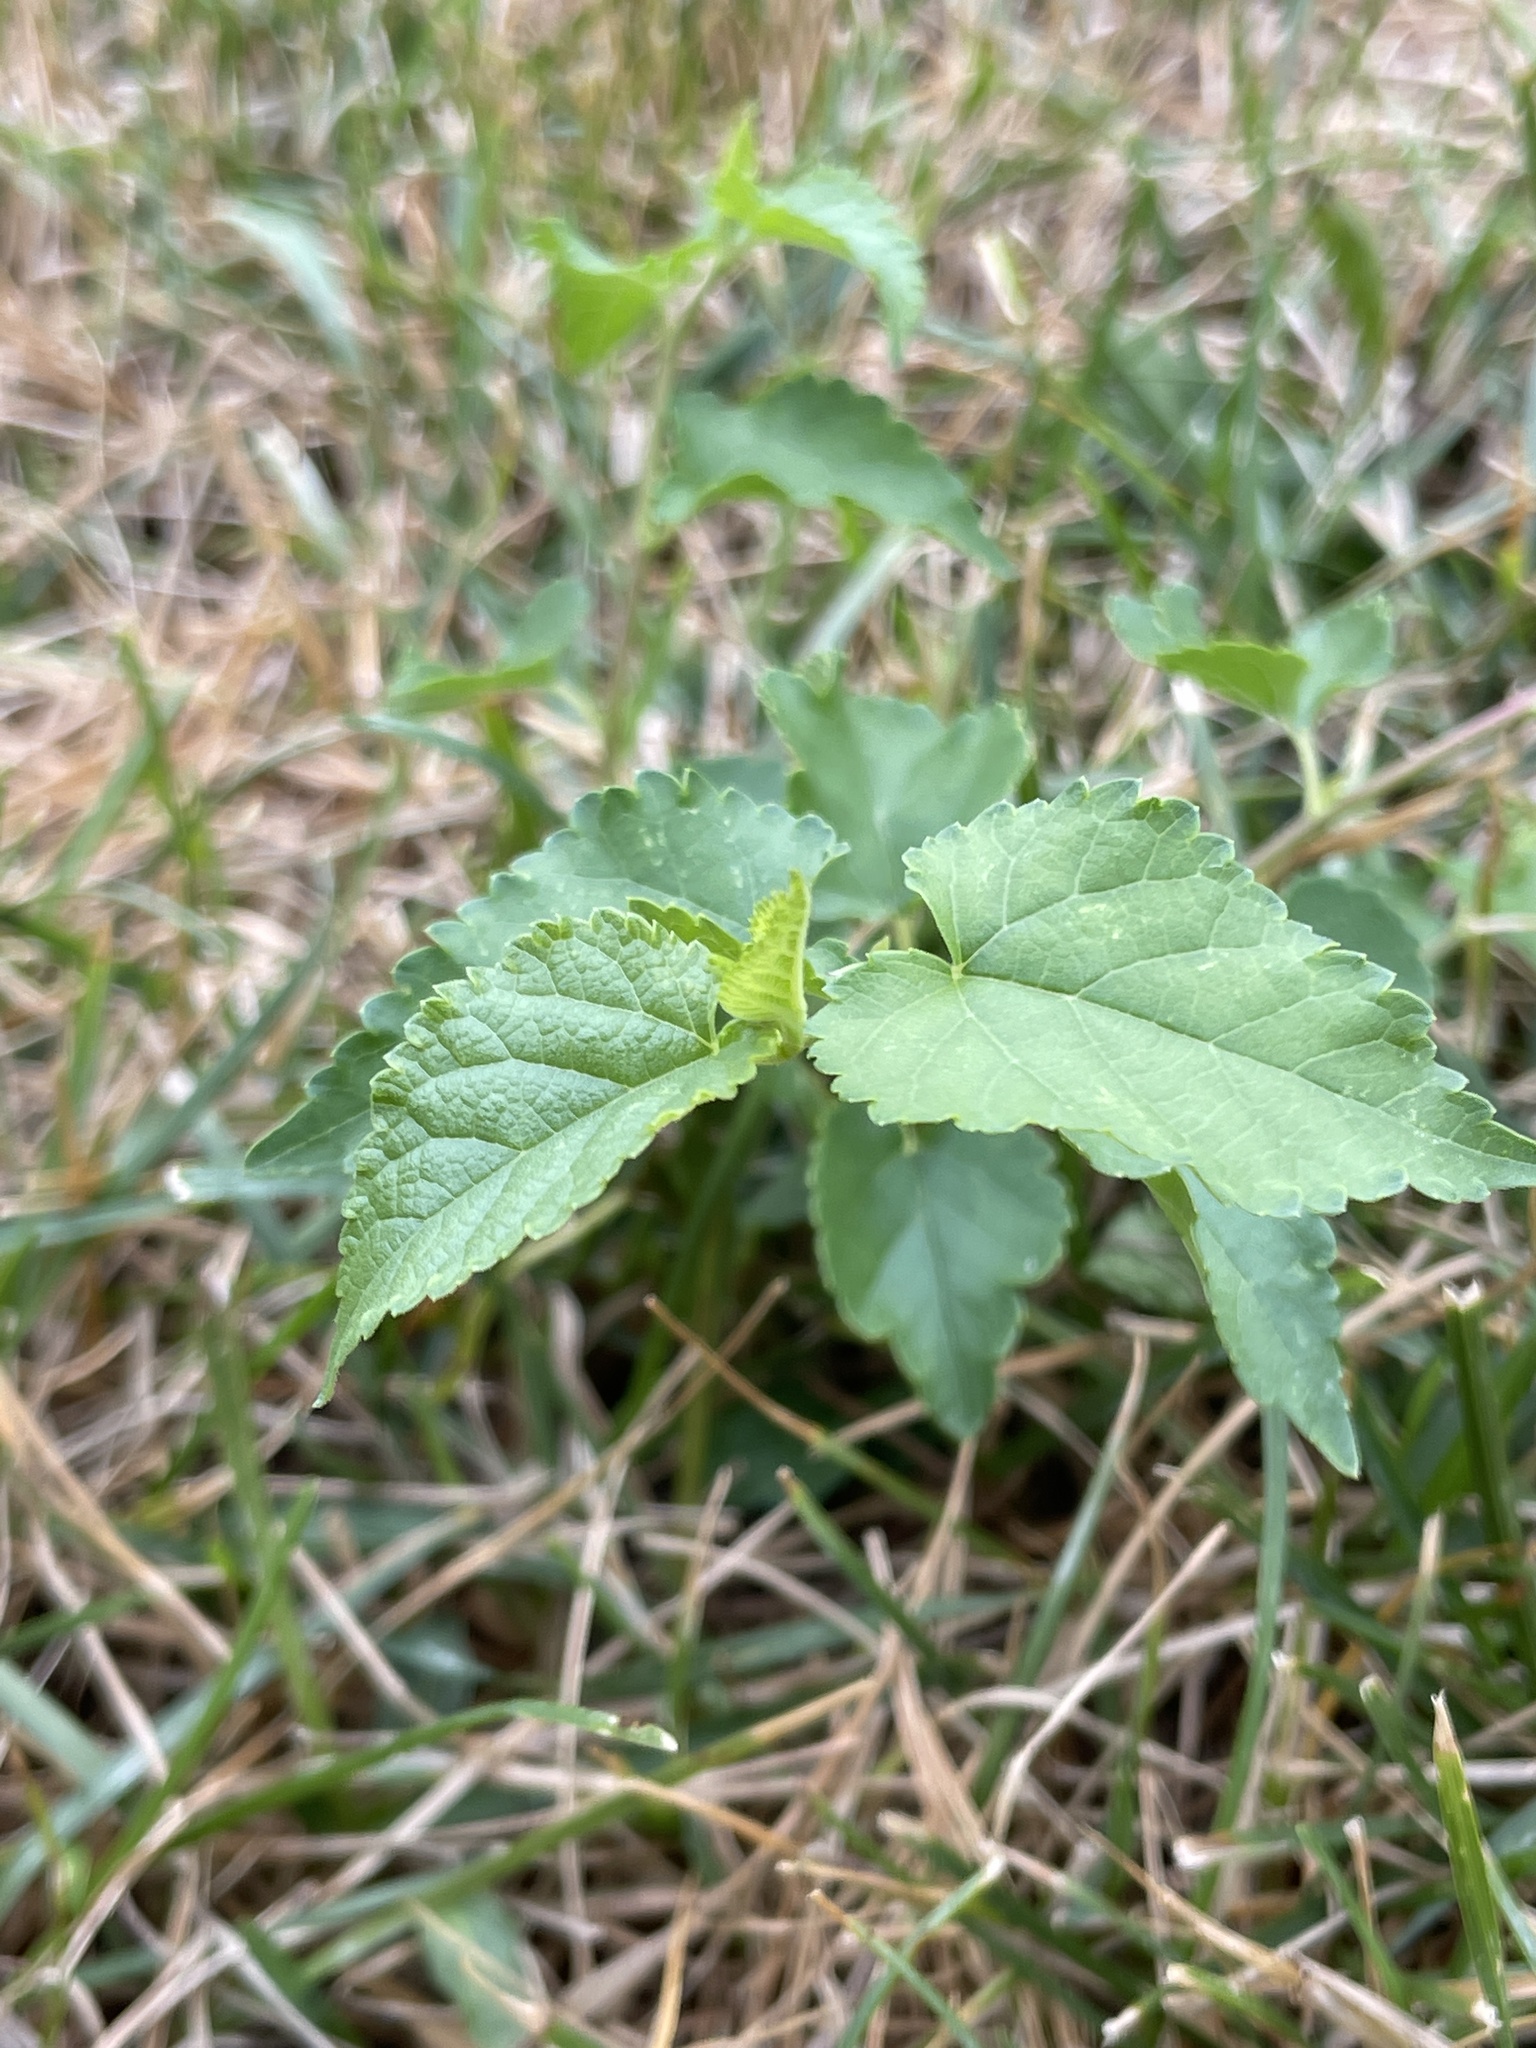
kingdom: Plantae
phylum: Tracheophyta
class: Magnoliopsida
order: Rosales
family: Moraceae
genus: Morus
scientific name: Morus alba
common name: White mulberry
